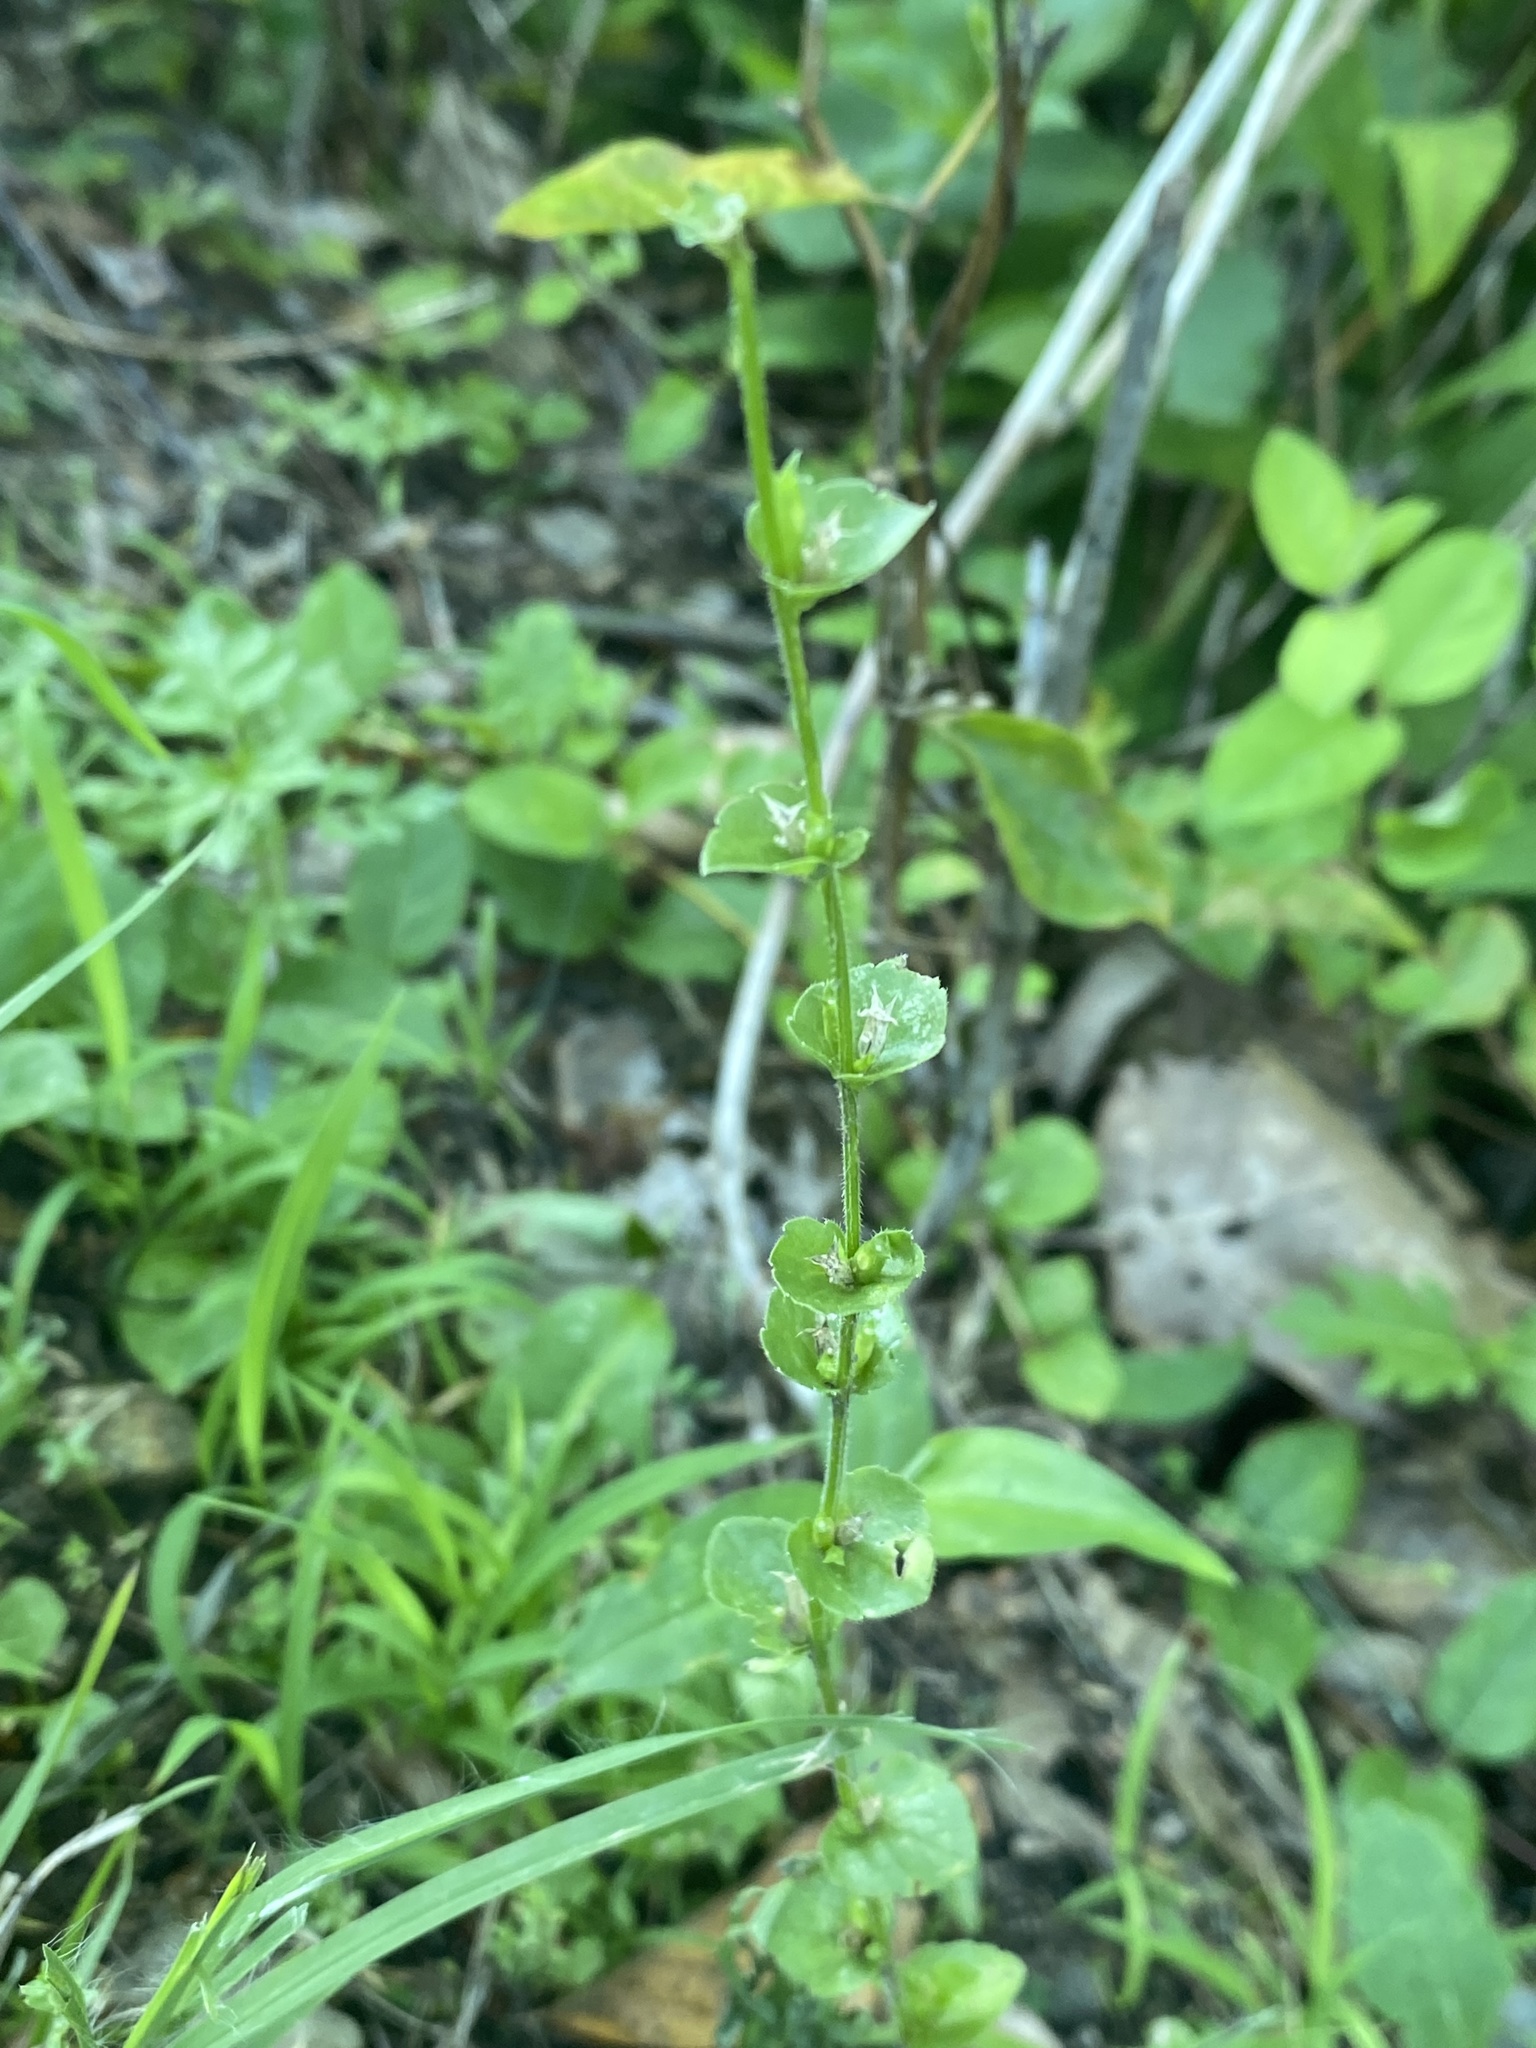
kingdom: Plantae
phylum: Tracheophyta
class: Magnoliopsida
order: Asterales
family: Campanulaceae
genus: Triodanis
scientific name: Triodanis perfoliata
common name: Clasping venus' looking-glass
